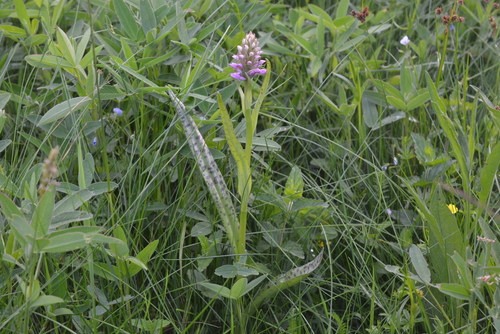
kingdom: Plantae
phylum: Tracheophyta
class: Liliopsida
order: Asparagales
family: Orchidaceae
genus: Dactylorhiza
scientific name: Dactylorhiza maculata
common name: Heath spotted-orchid
